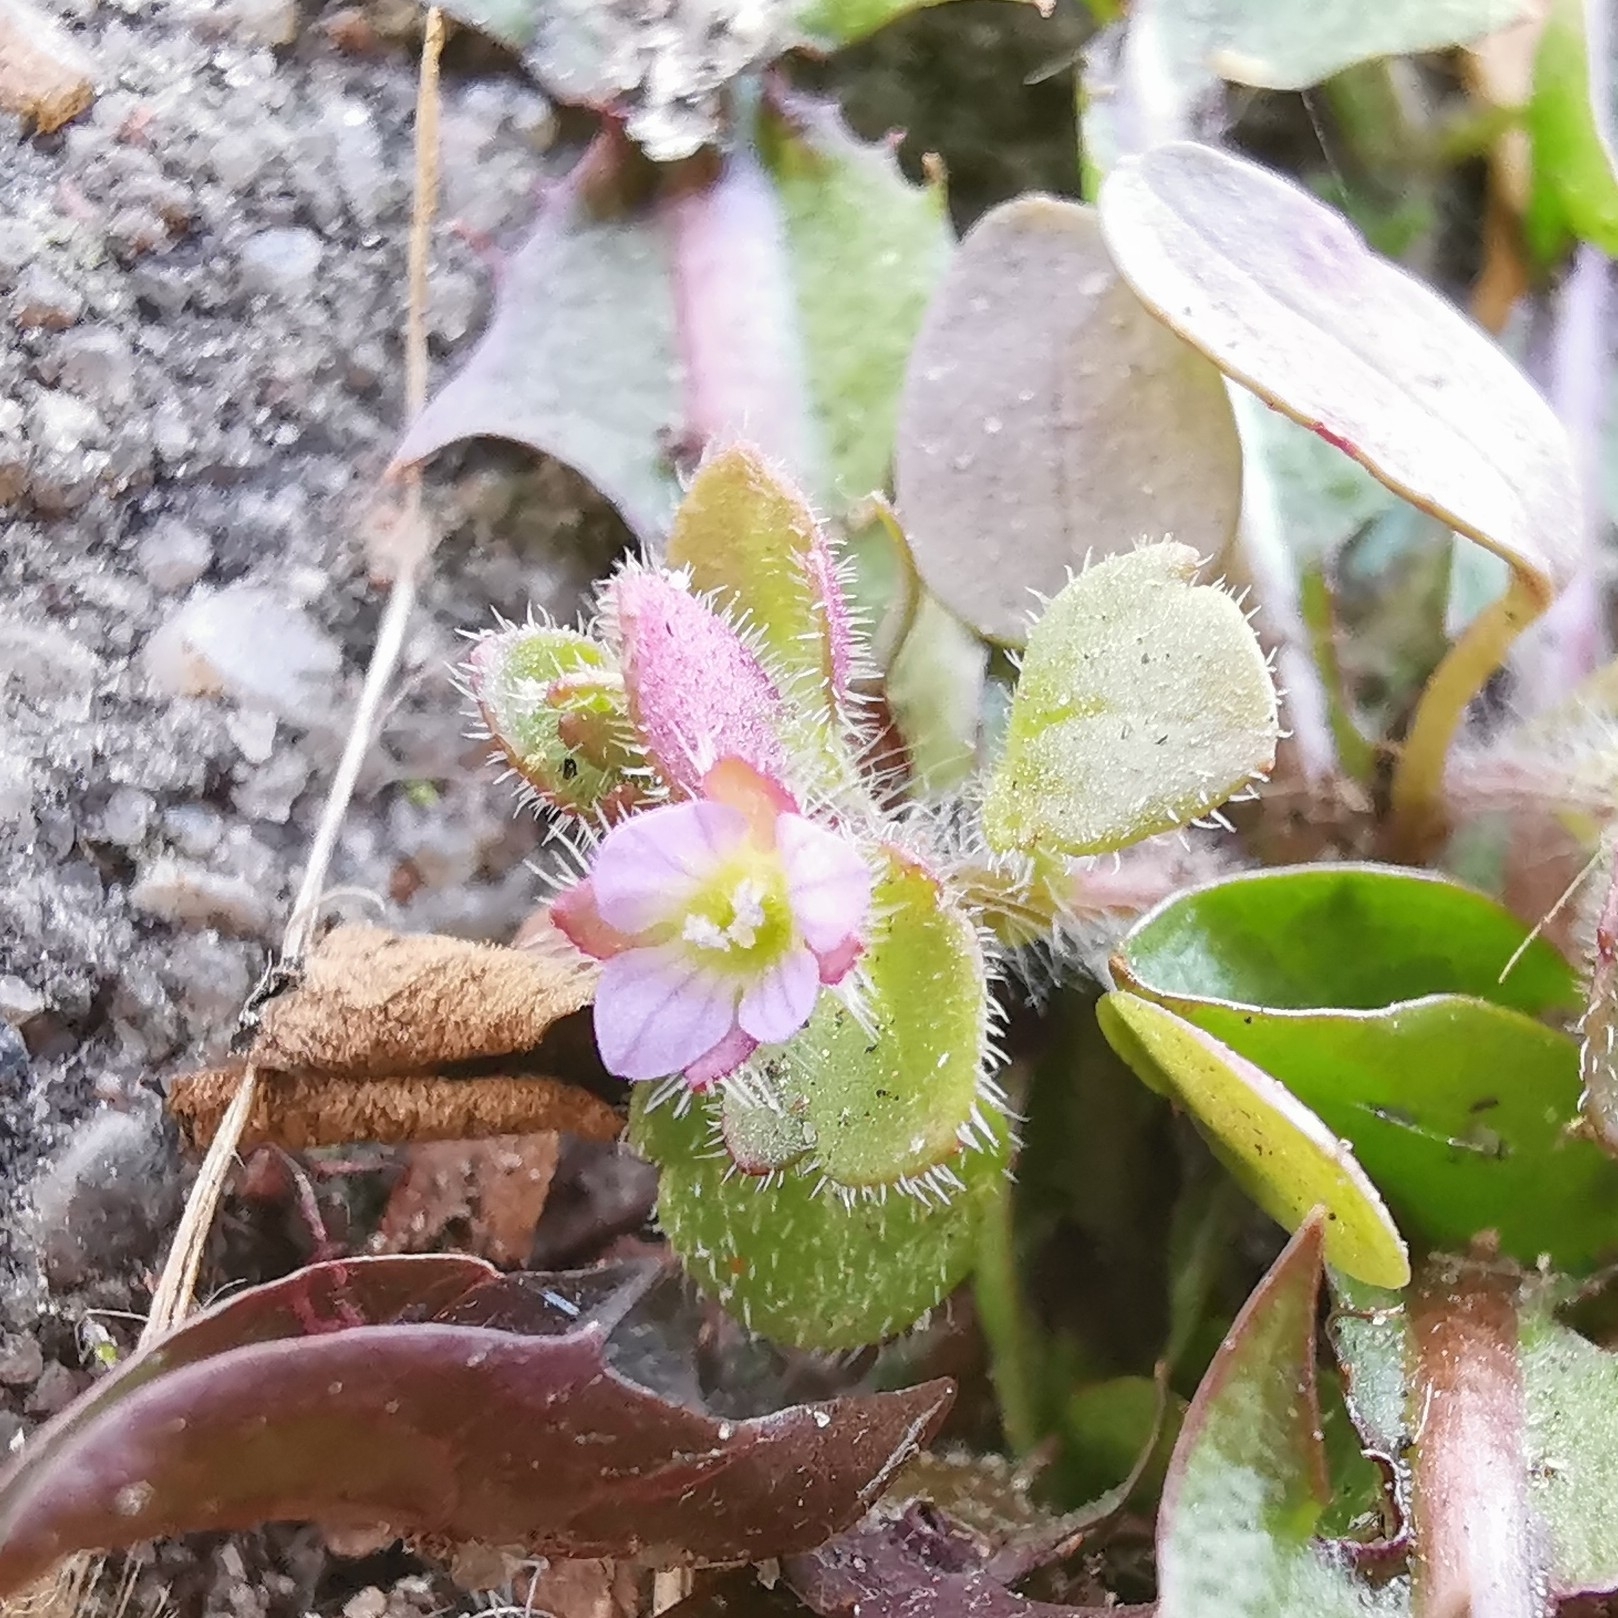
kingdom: Plantae
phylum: Tracheophyta
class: Magnoliopsida
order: Lamiales
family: Plantaginaceae
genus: Veronica
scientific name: Veronica sublobata
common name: False ivy-leaved speedwell
